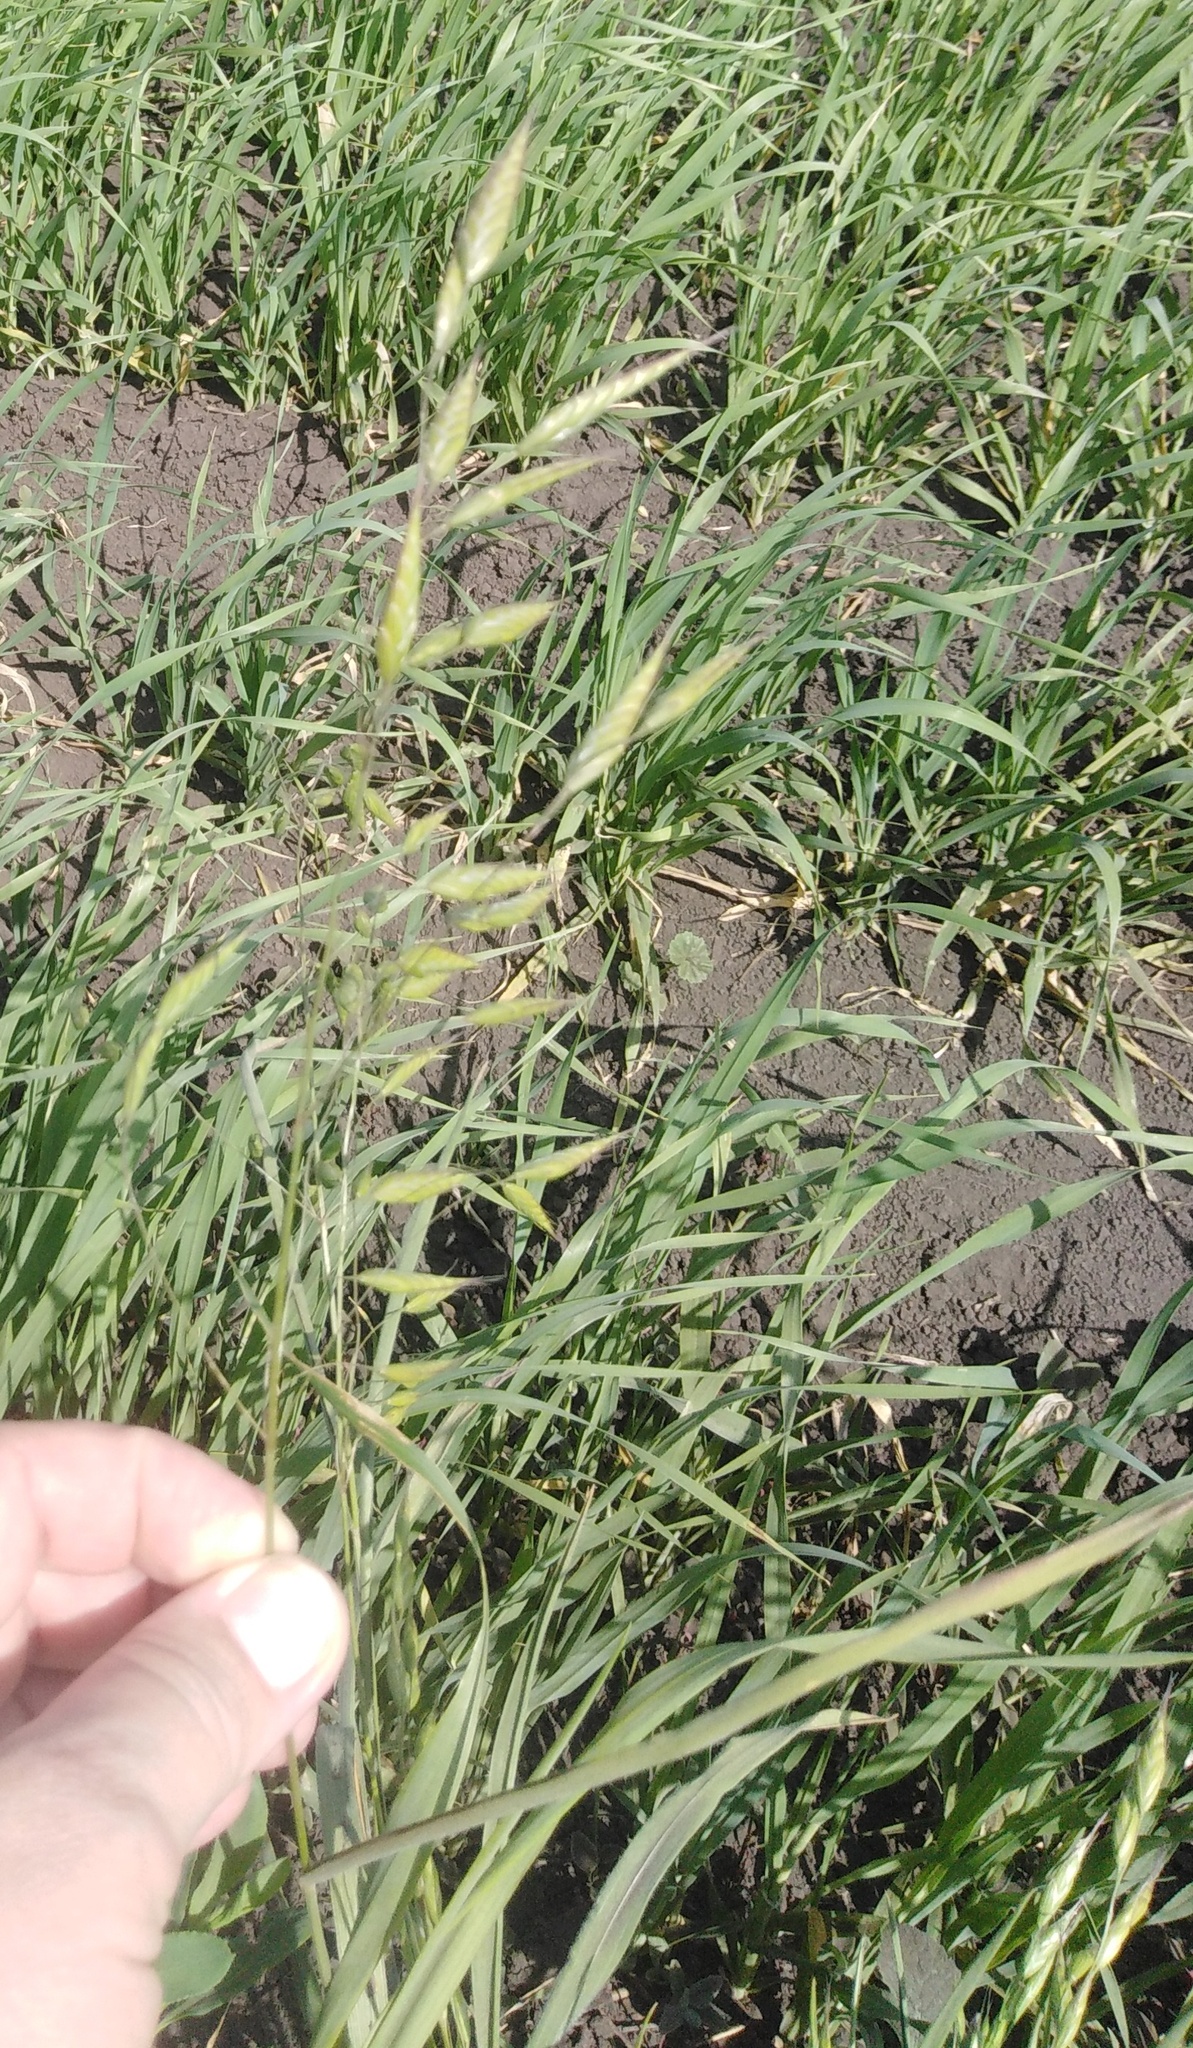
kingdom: Plantae
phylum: Tracheophyta
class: Liliopsida
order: Poales
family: Poaceae
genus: Bromus
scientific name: Bromus squarrosus
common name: Corn brome
